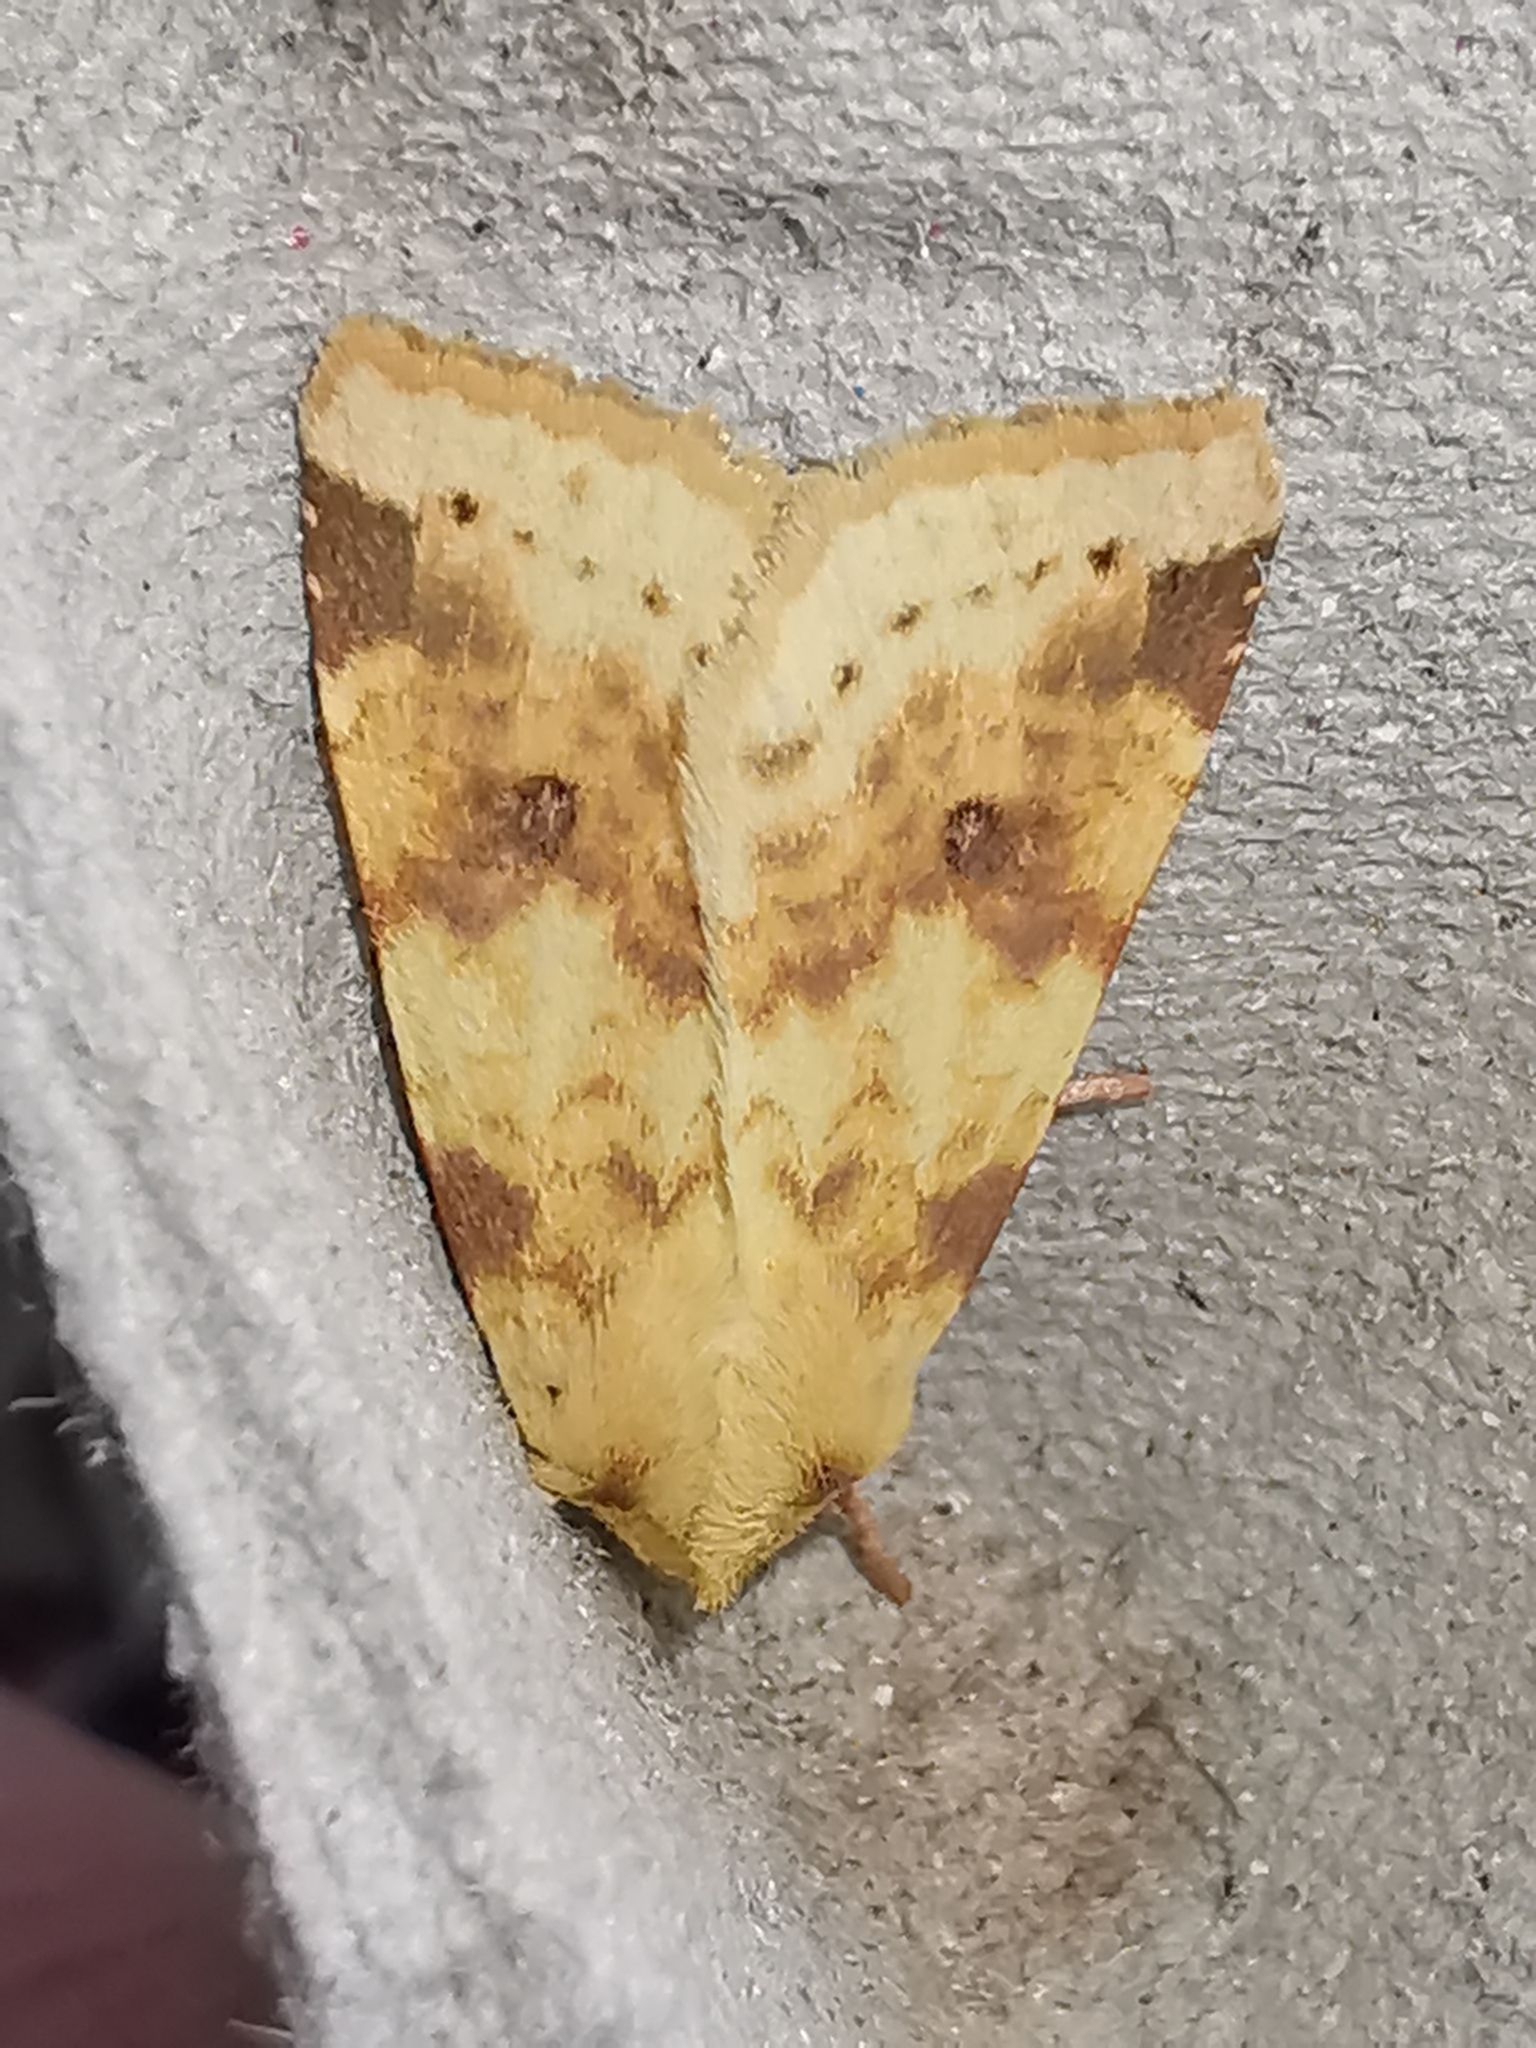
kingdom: Animalia
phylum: Arthropoda
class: Insecta
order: Lepidoptera
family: Noctuidae
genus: Xanthia
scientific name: Xanthia icteritia
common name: The sallow
